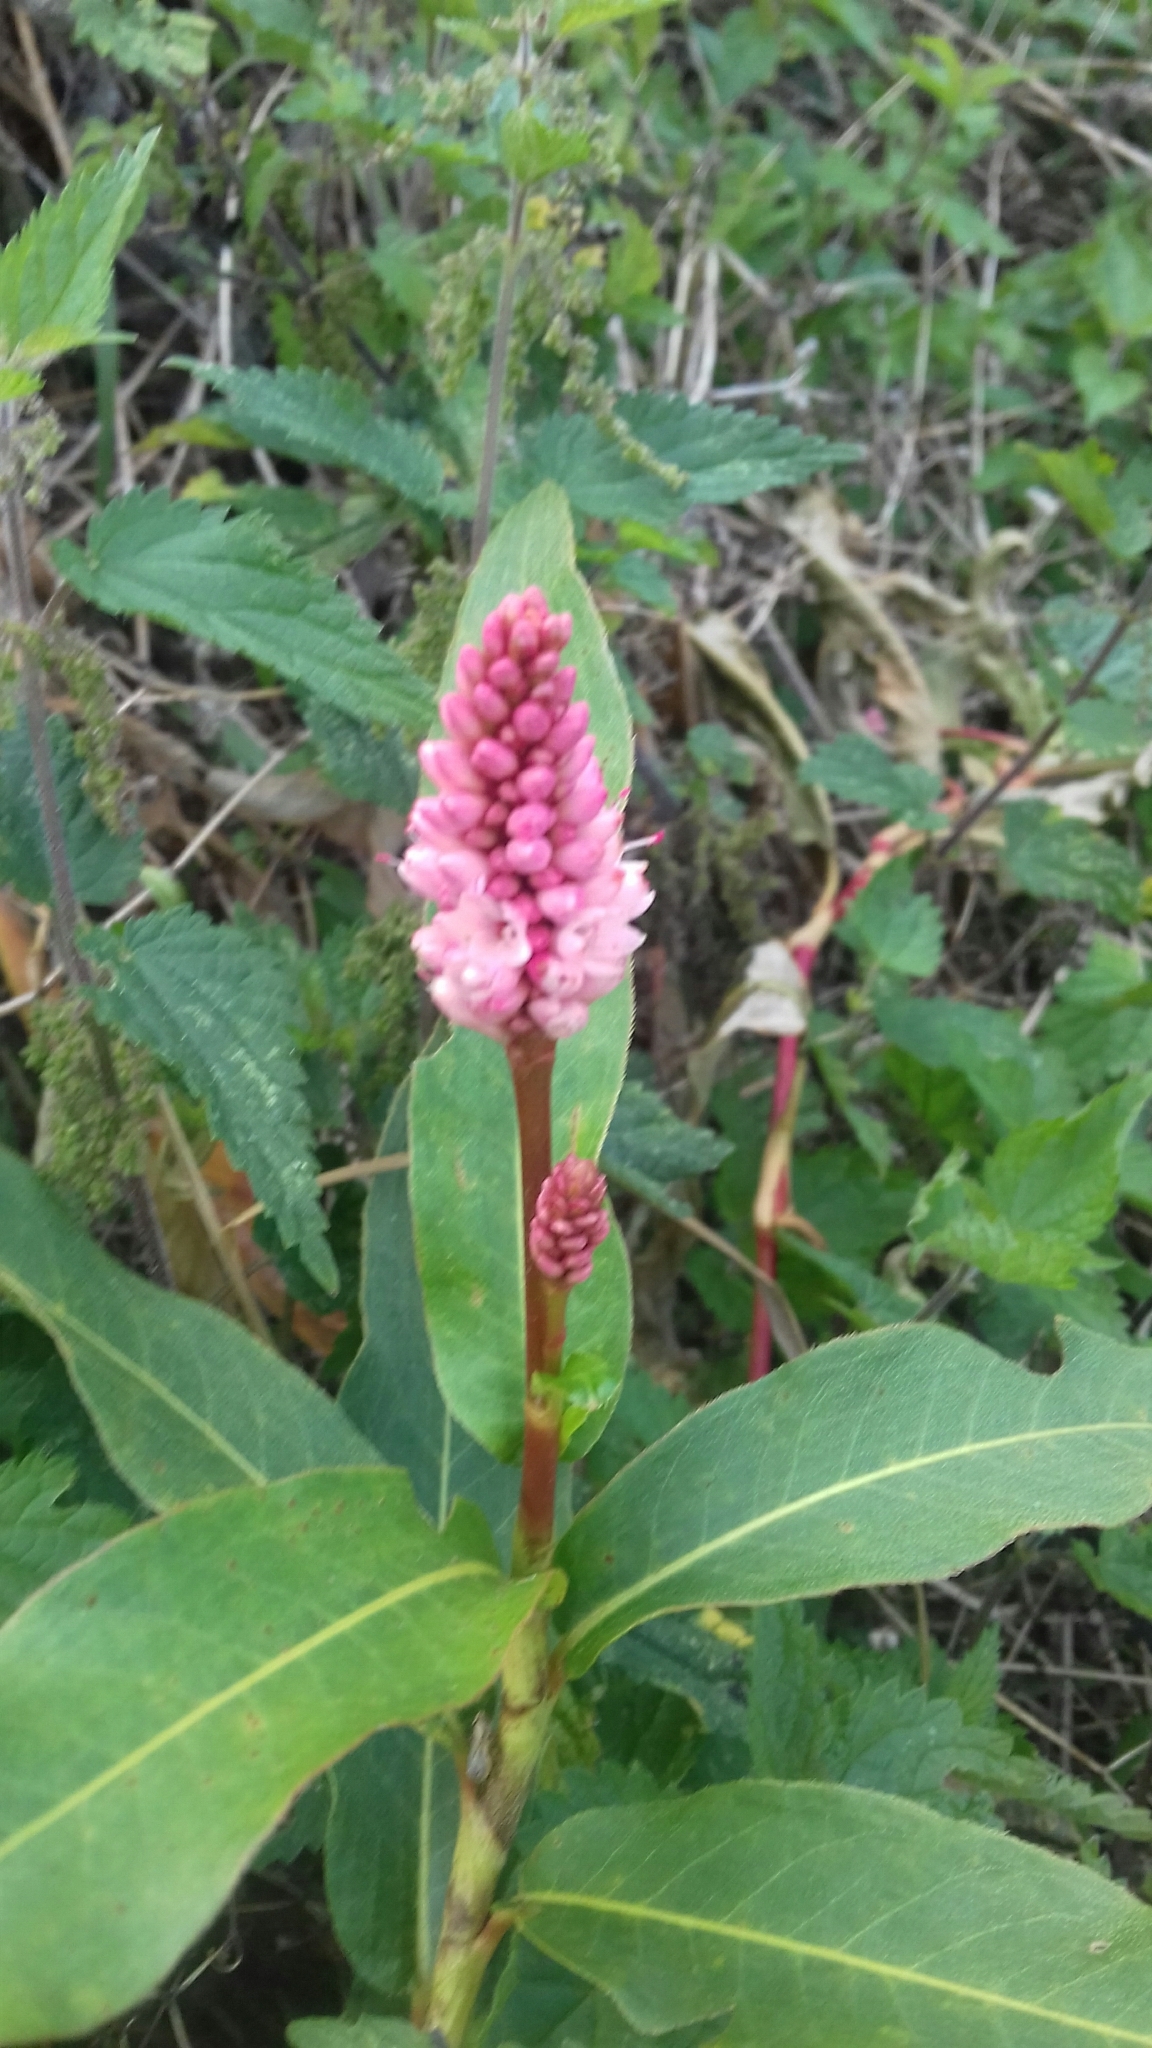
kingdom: Plantae
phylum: Tracheophyta
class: Magnoliopsida
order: Caryophyllales
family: Polygonaceae
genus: Persicaria
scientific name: Persicaria amphibia
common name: Amphibious bistort
